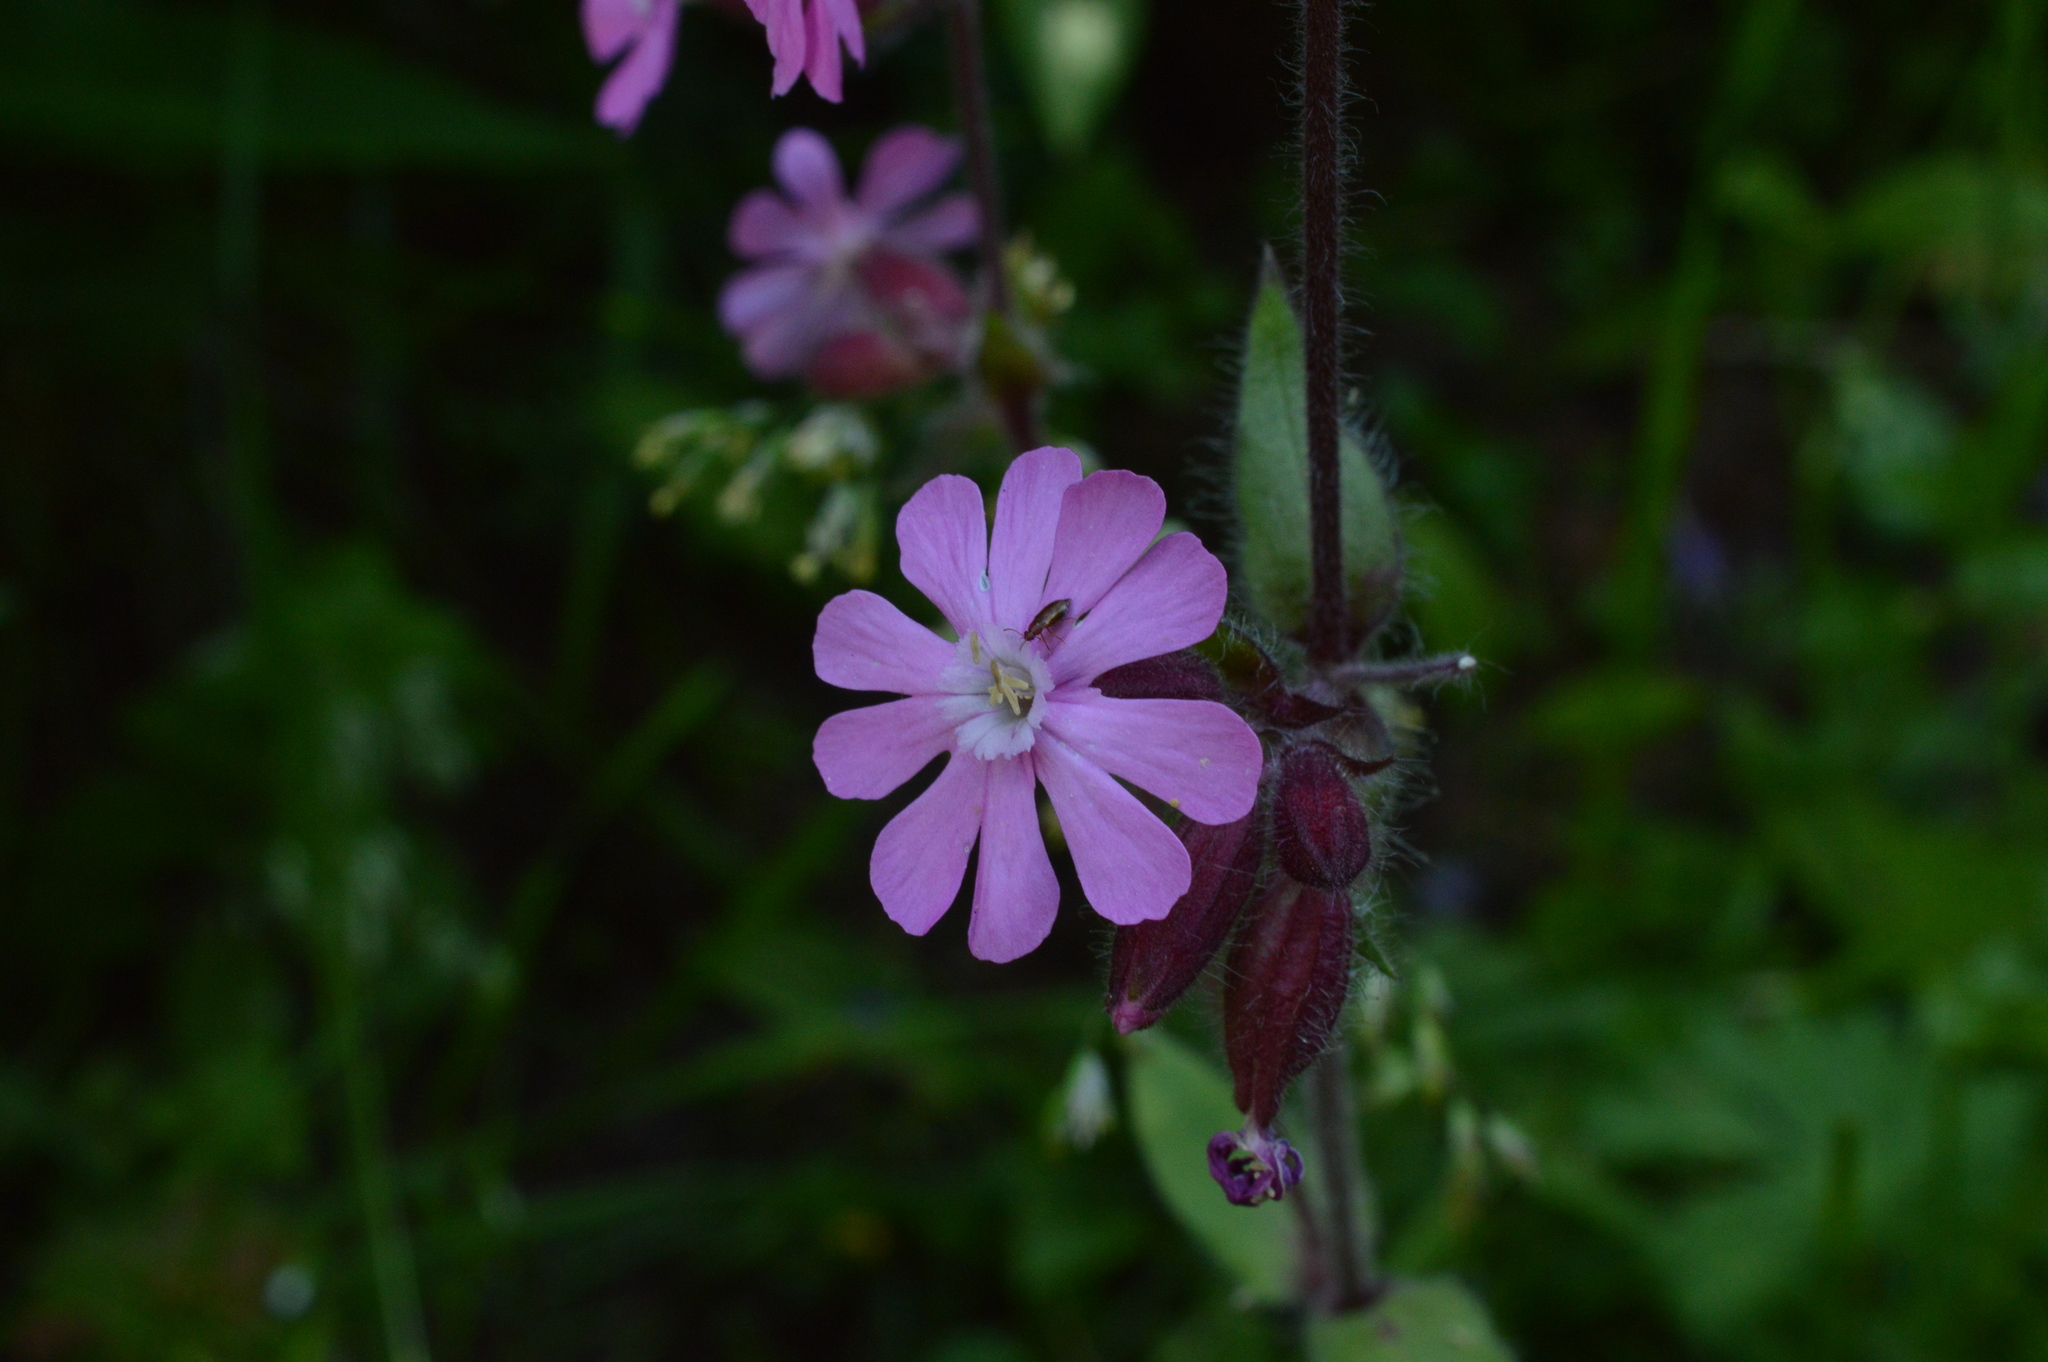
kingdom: Plantae
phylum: Tracheophyta
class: Magnoliopsida
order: Caryophyllales
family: Caryophyllaceae
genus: Silene
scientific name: Silene dioica
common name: Red campion
